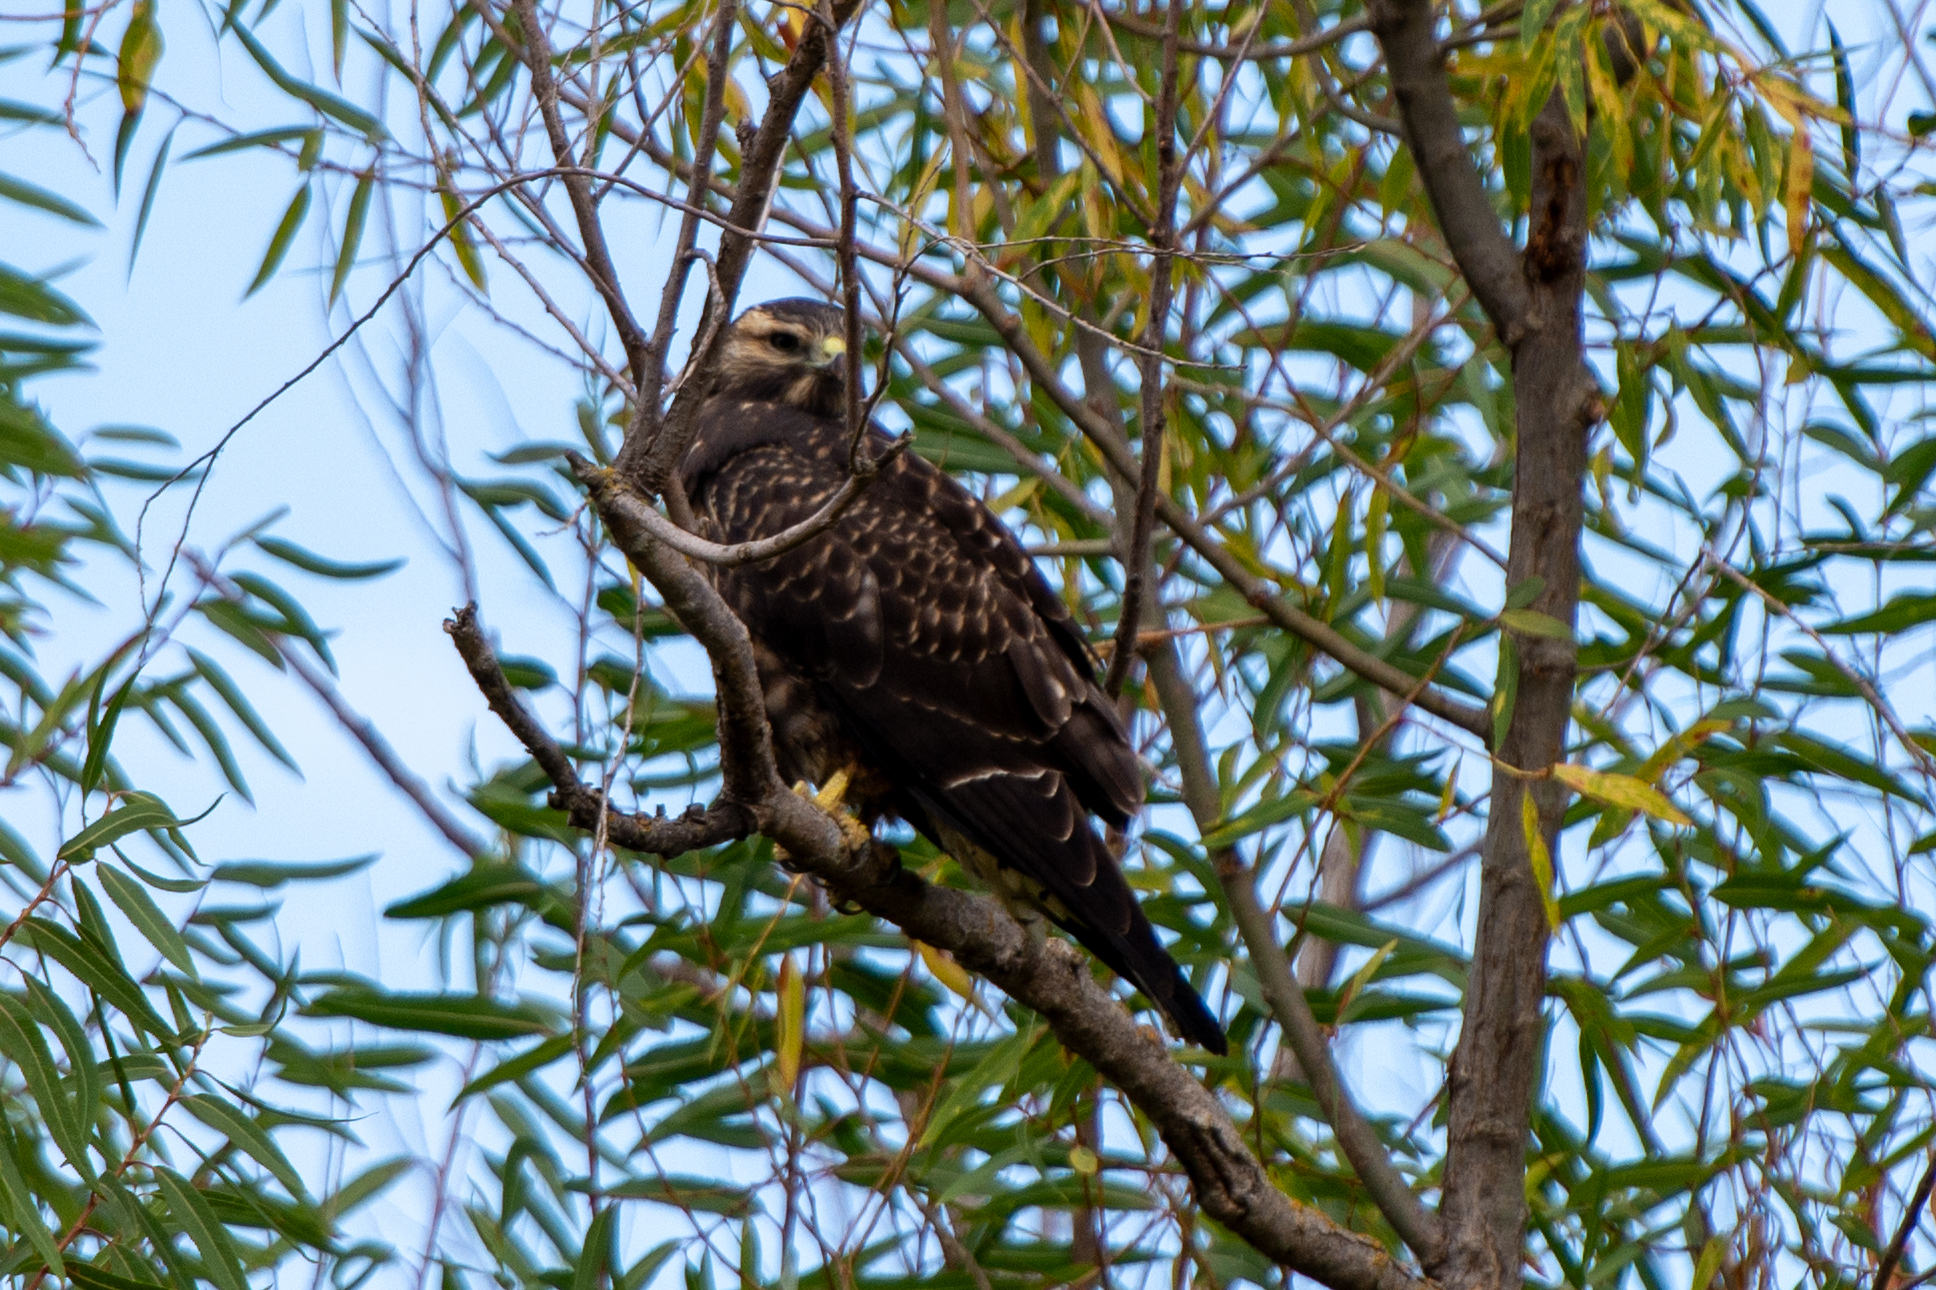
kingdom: Animalia
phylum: Chordata
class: Aves
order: Accipitriformes
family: Accipitridae
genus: Buteo
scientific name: Buteo swainsoni
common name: Swainson's hawk
